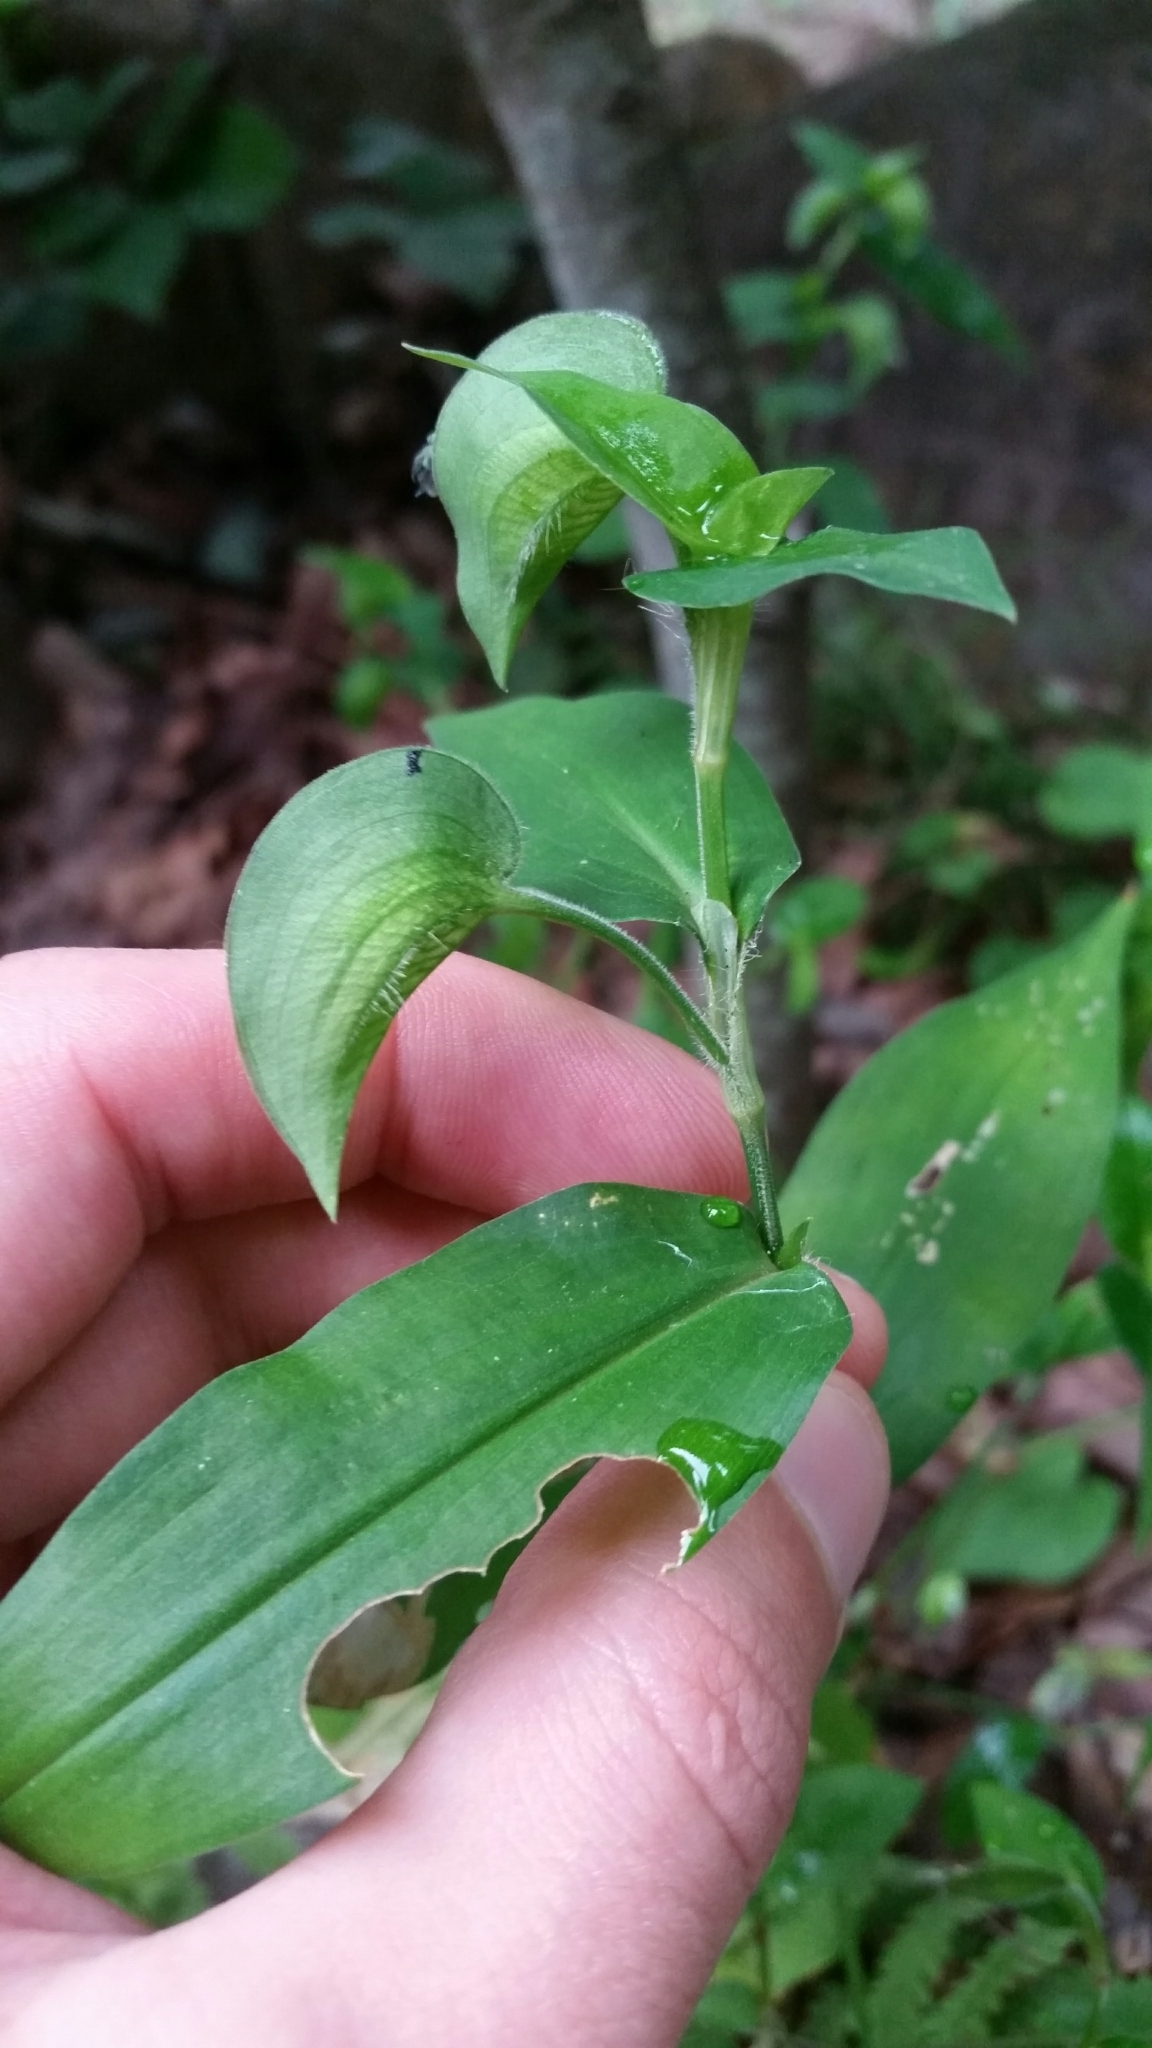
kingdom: Plantae
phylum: Tracheophyta
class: Liliopsida
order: Commelinales
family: Commelinaceae
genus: Commelina
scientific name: Commelina communis
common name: Asiatic dayflower
